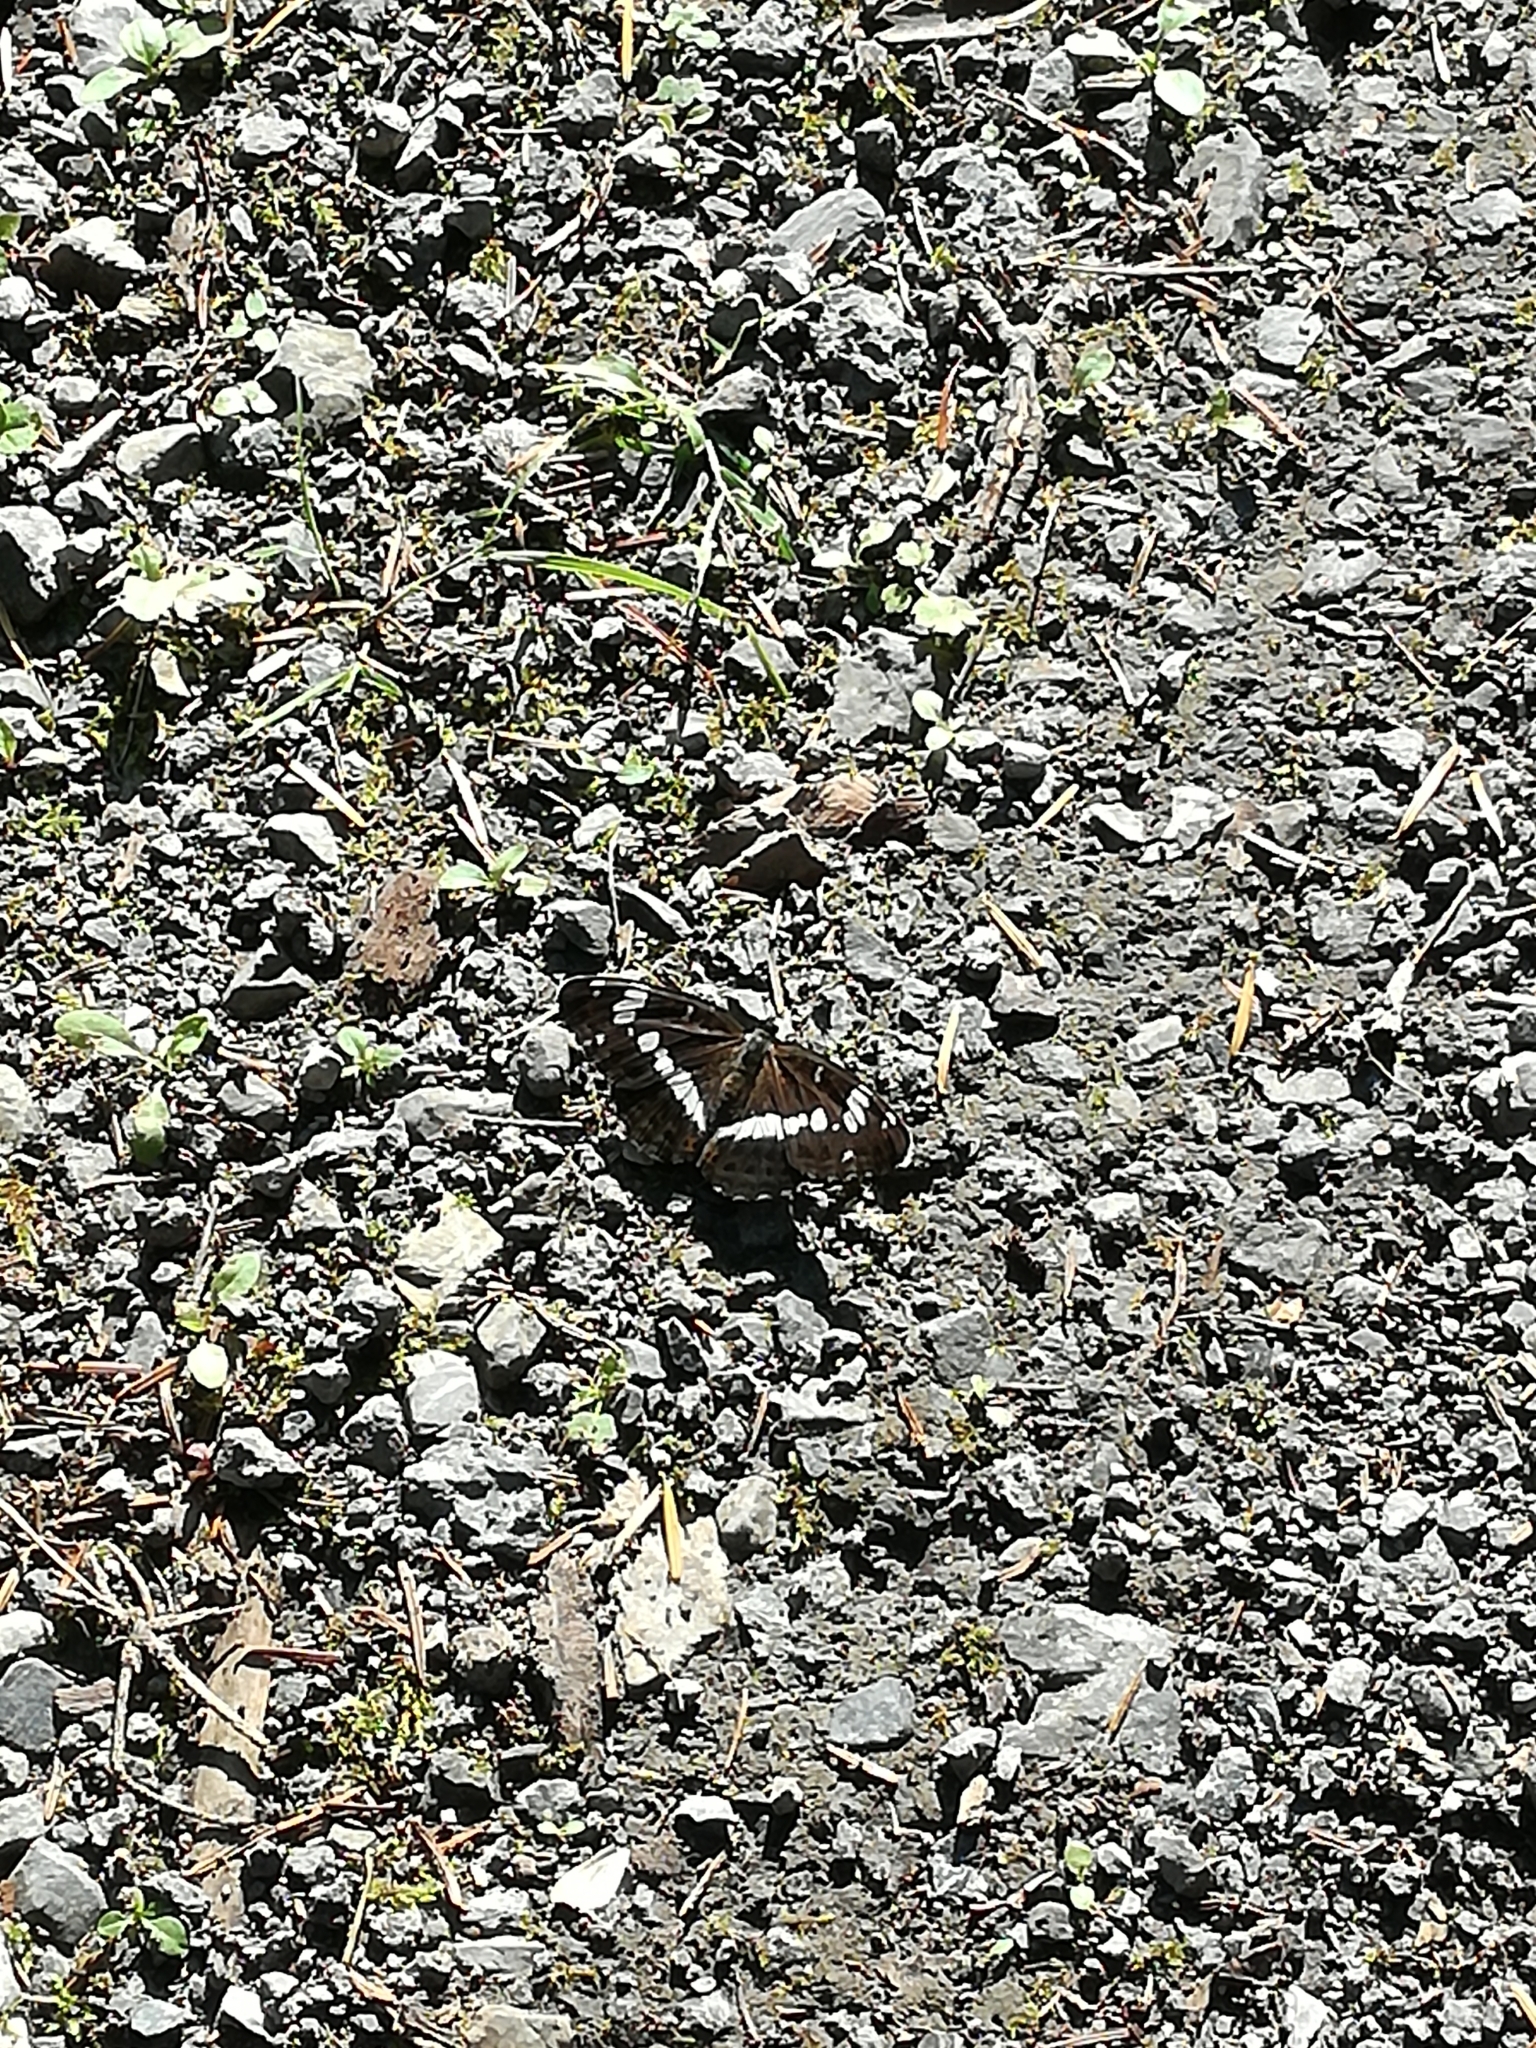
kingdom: Animalia
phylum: Arthropoda
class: Insecta
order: Lepidoptera
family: Nymphalidae
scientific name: Nymphalidae
